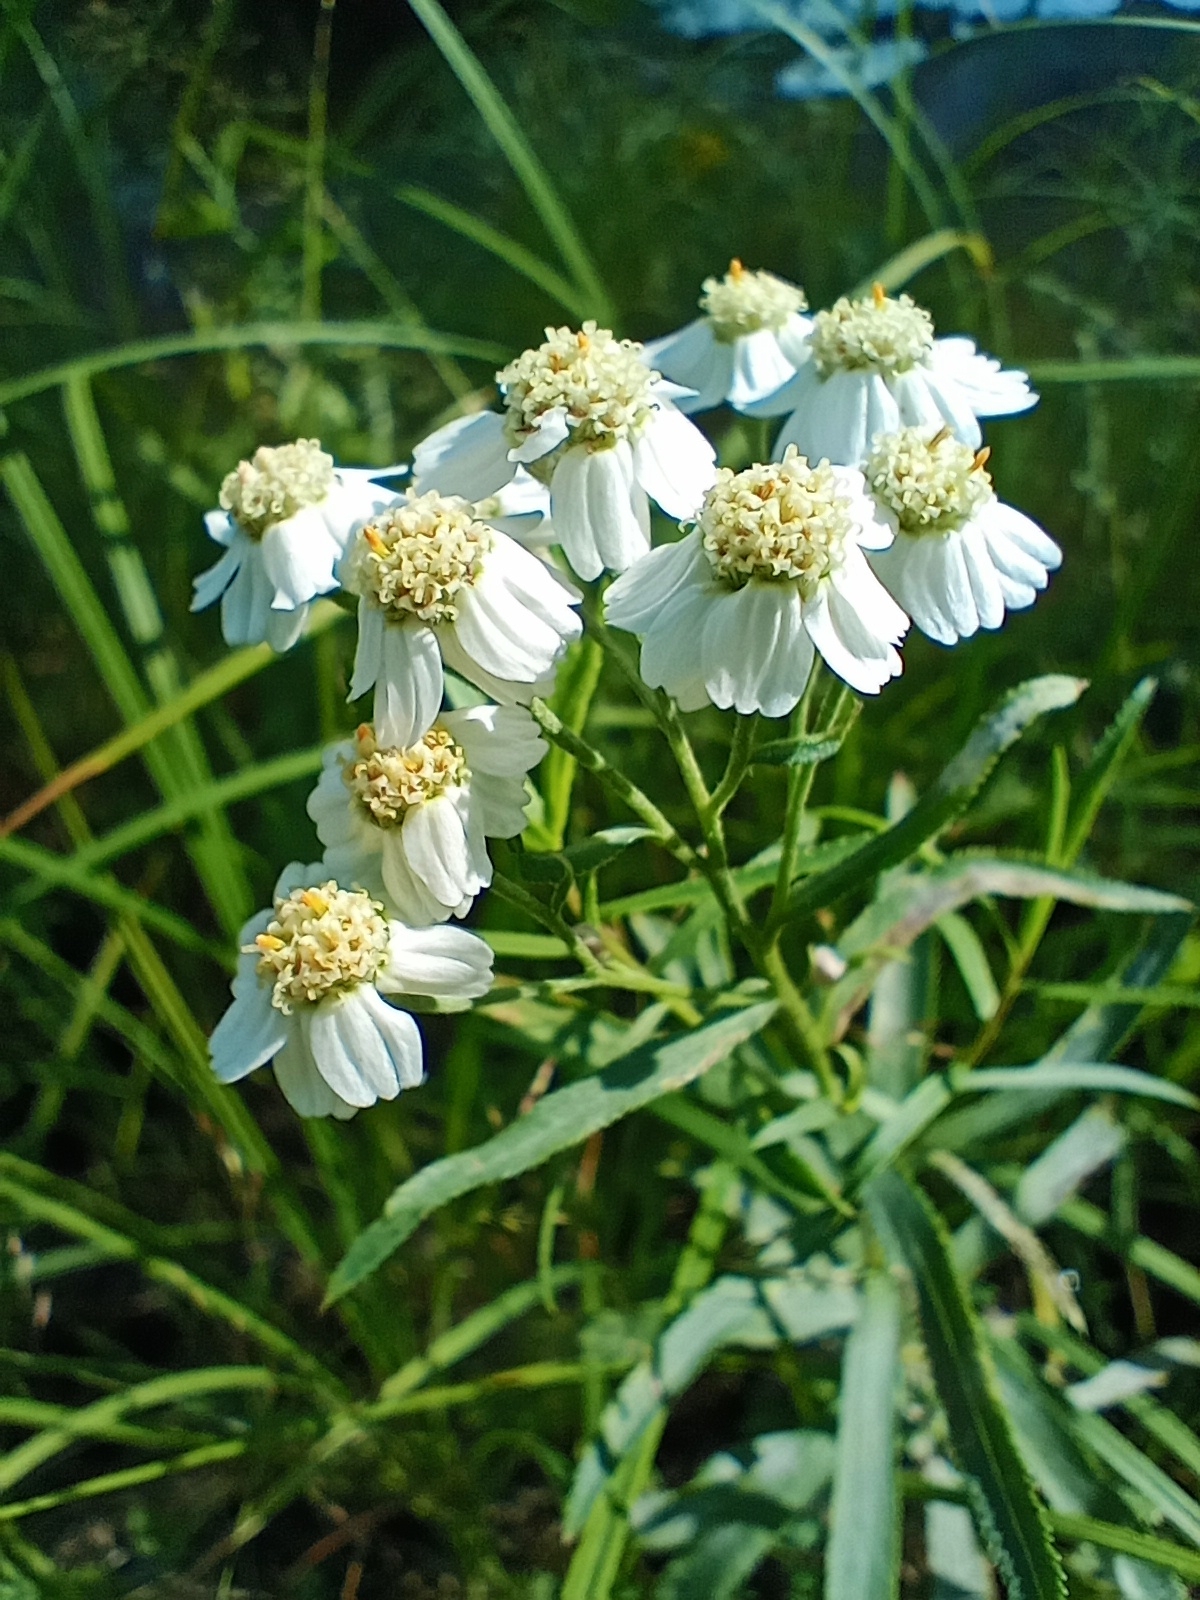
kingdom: Plantae
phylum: Tracheophyta
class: Magnoliopsida
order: Asterales
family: Asteraceae
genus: Achillea
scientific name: Achillea salicifolia
